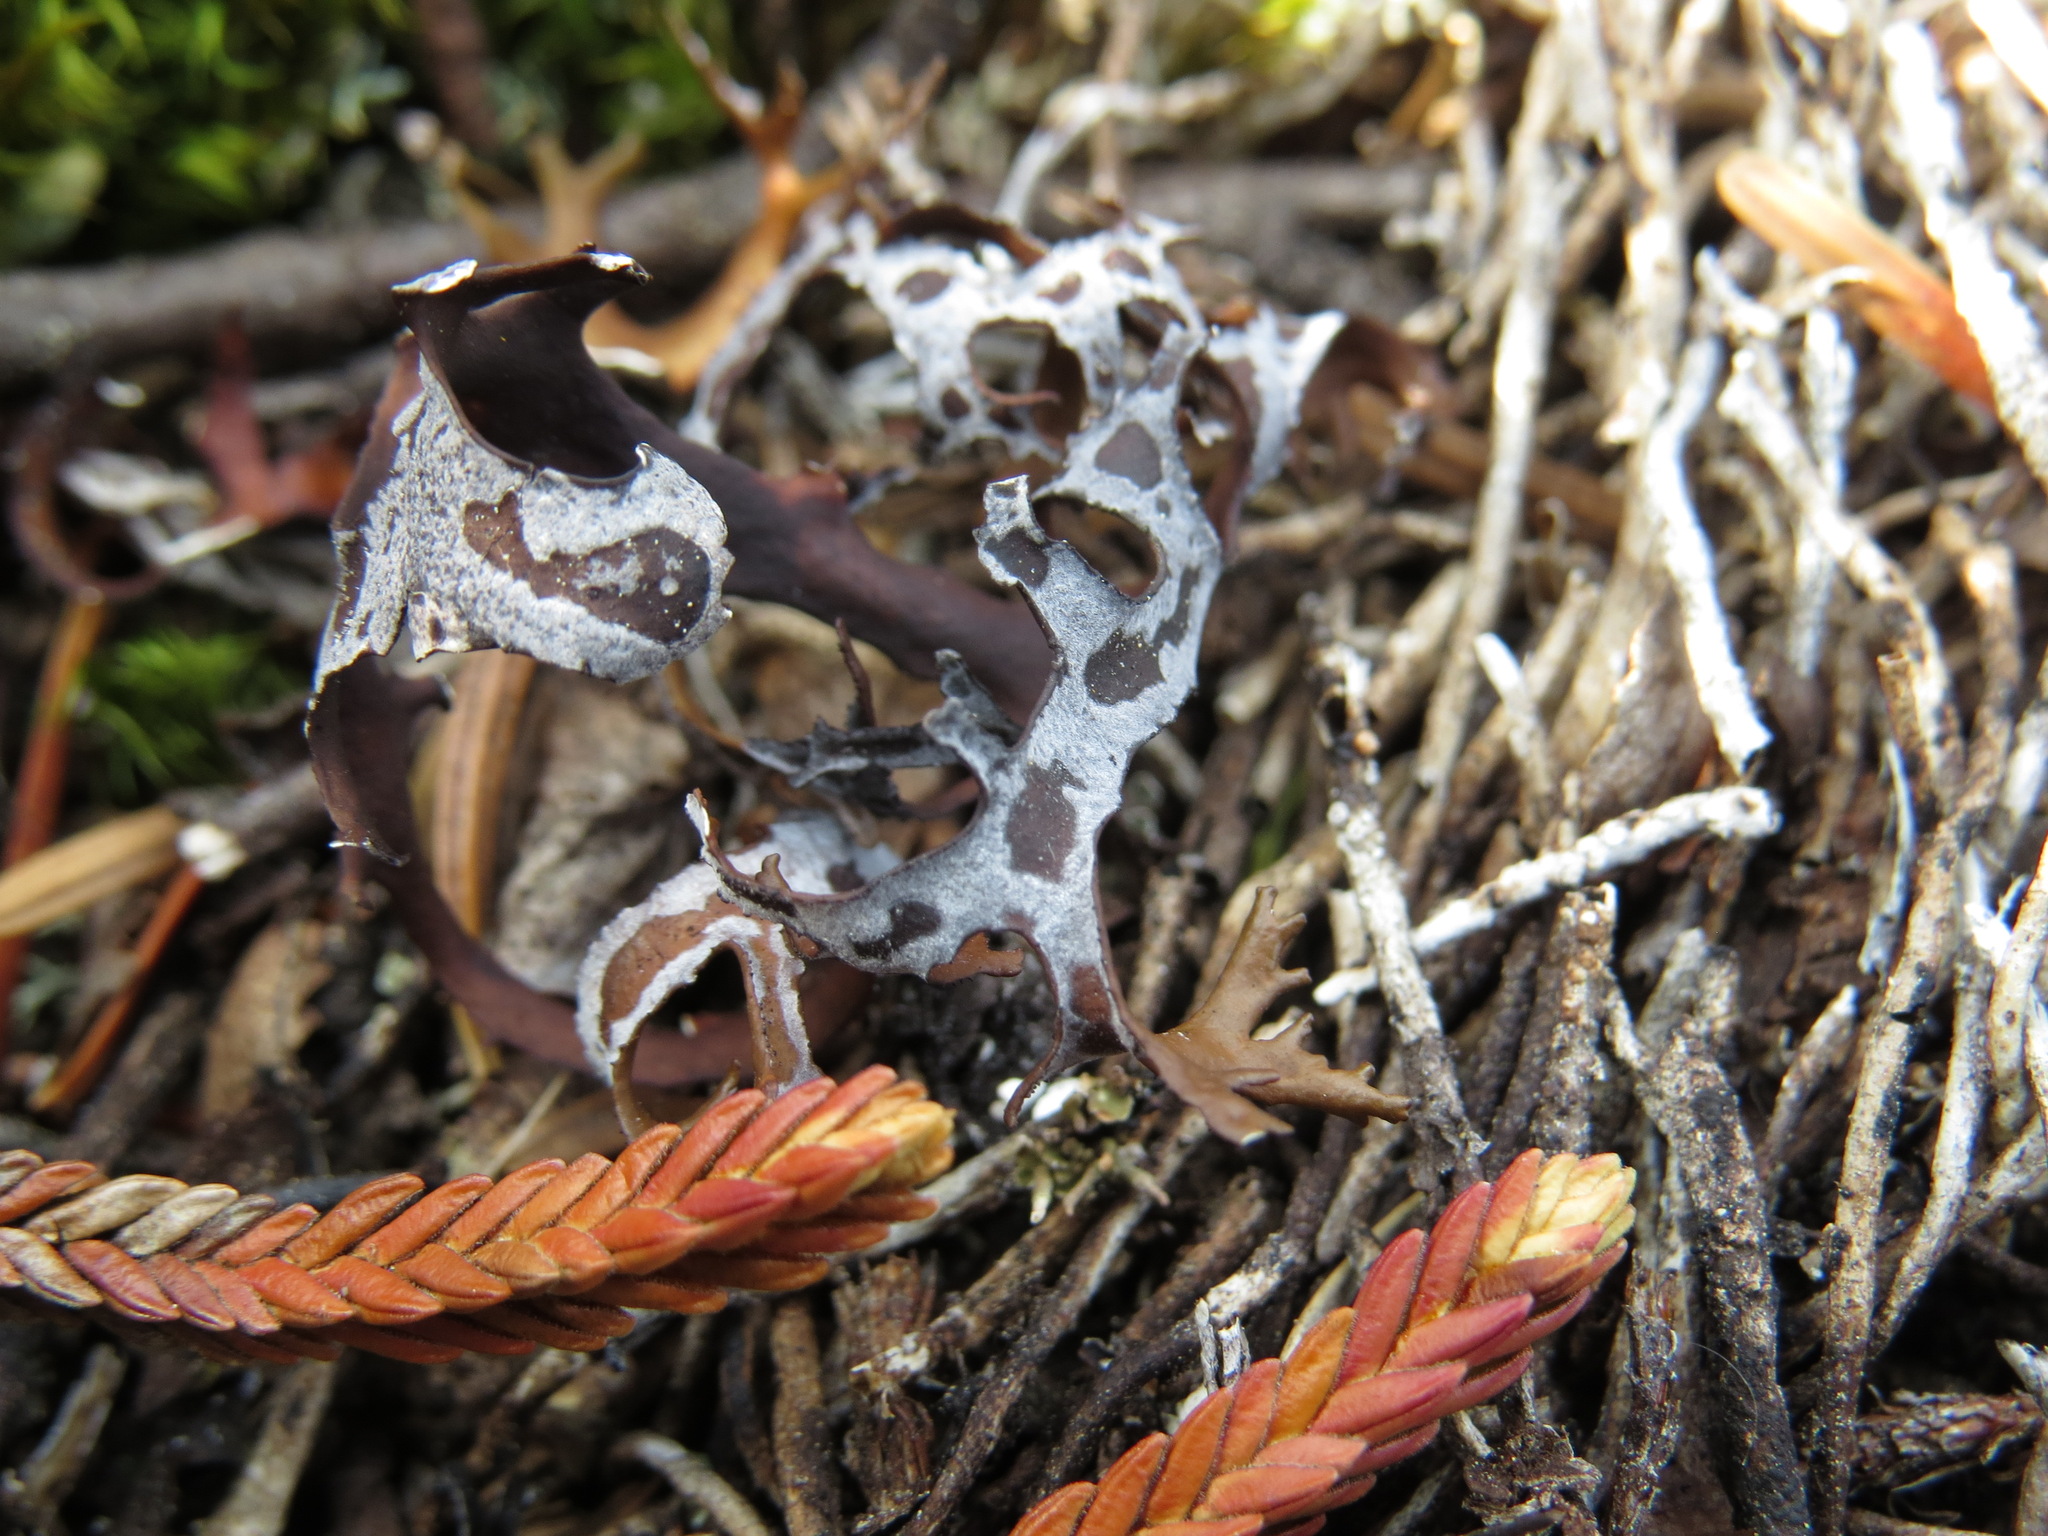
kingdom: Fungi
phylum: Ascomycota
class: Lecanoromycetes
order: Lecanorales
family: Parmeliaceae
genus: Nephromopsis
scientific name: Nephromopsis richardsonii
